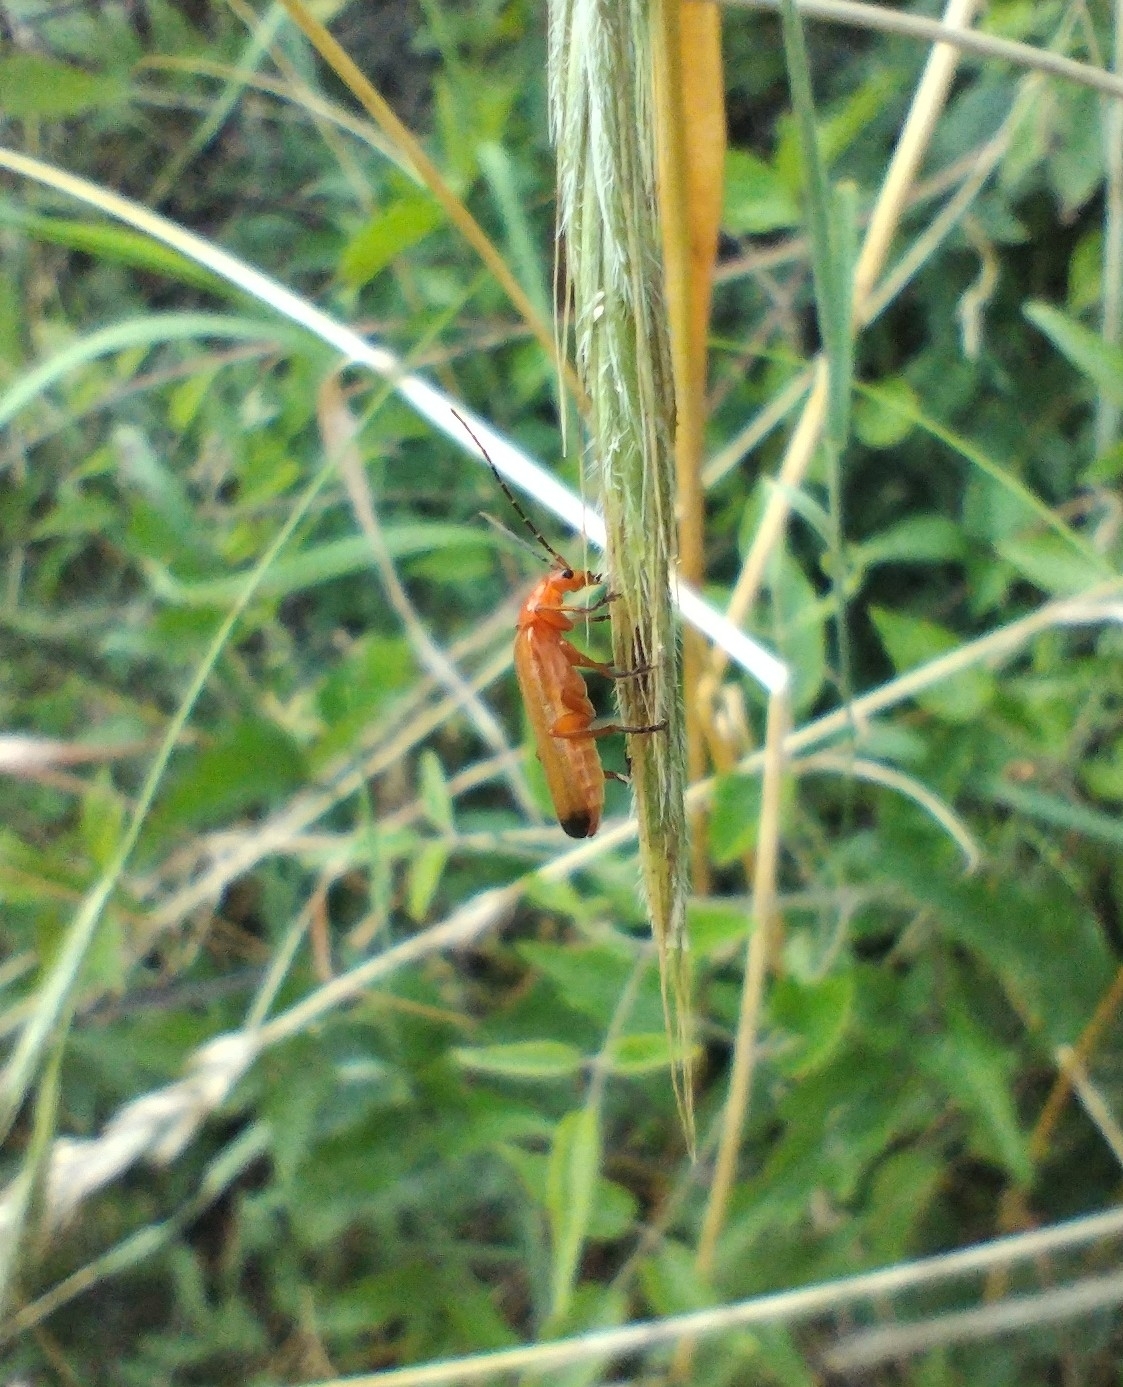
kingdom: Animalia
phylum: Arthropoda
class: Insecta
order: Coleoptera
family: Cantharidae
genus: Rhagonycha
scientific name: Rhagonycha fulva
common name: Common red soldier beetle
